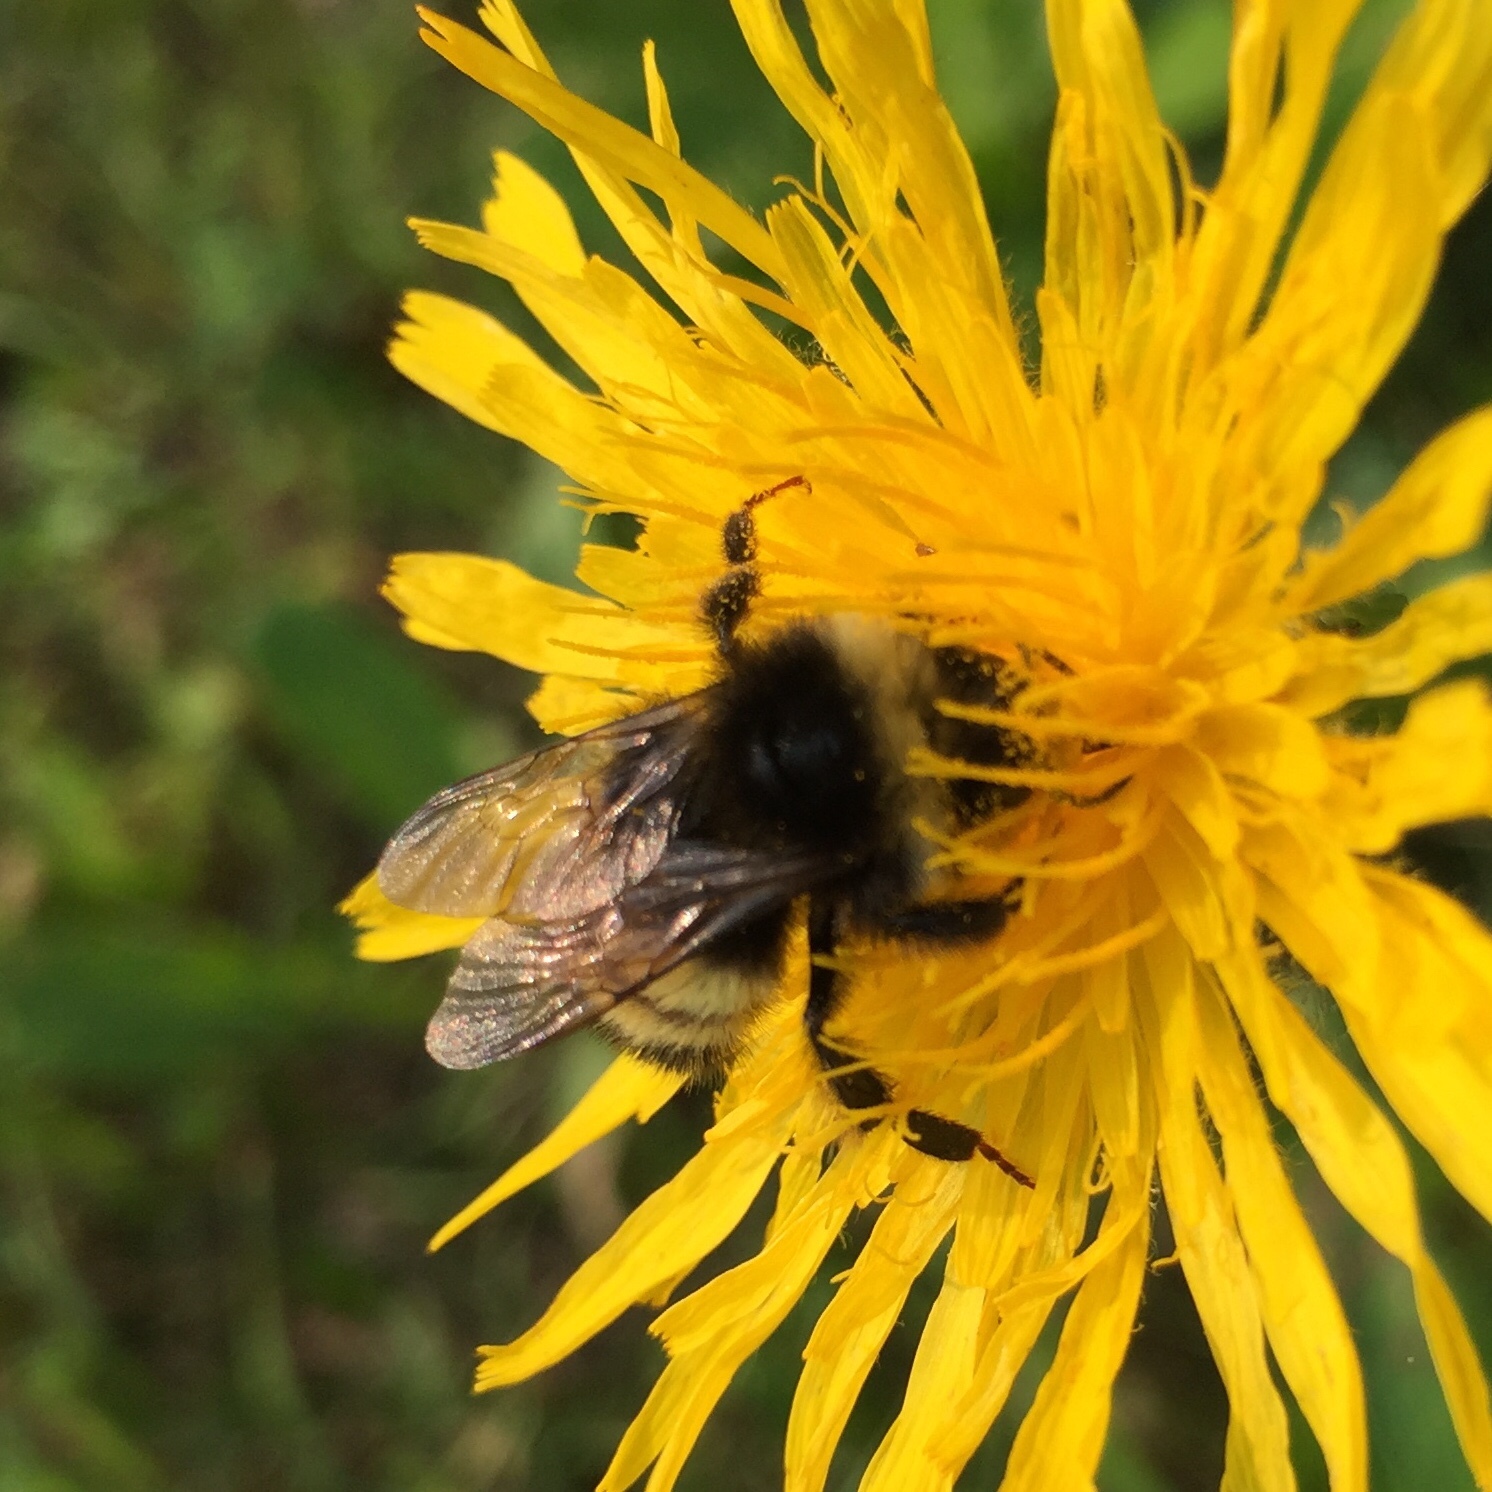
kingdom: Animalia
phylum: Arthropoda
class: Insecta
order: Hymenoptera
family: Apidae
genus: Bombus
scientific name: Bombus terricola
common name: Yellow-banded bumble bee
